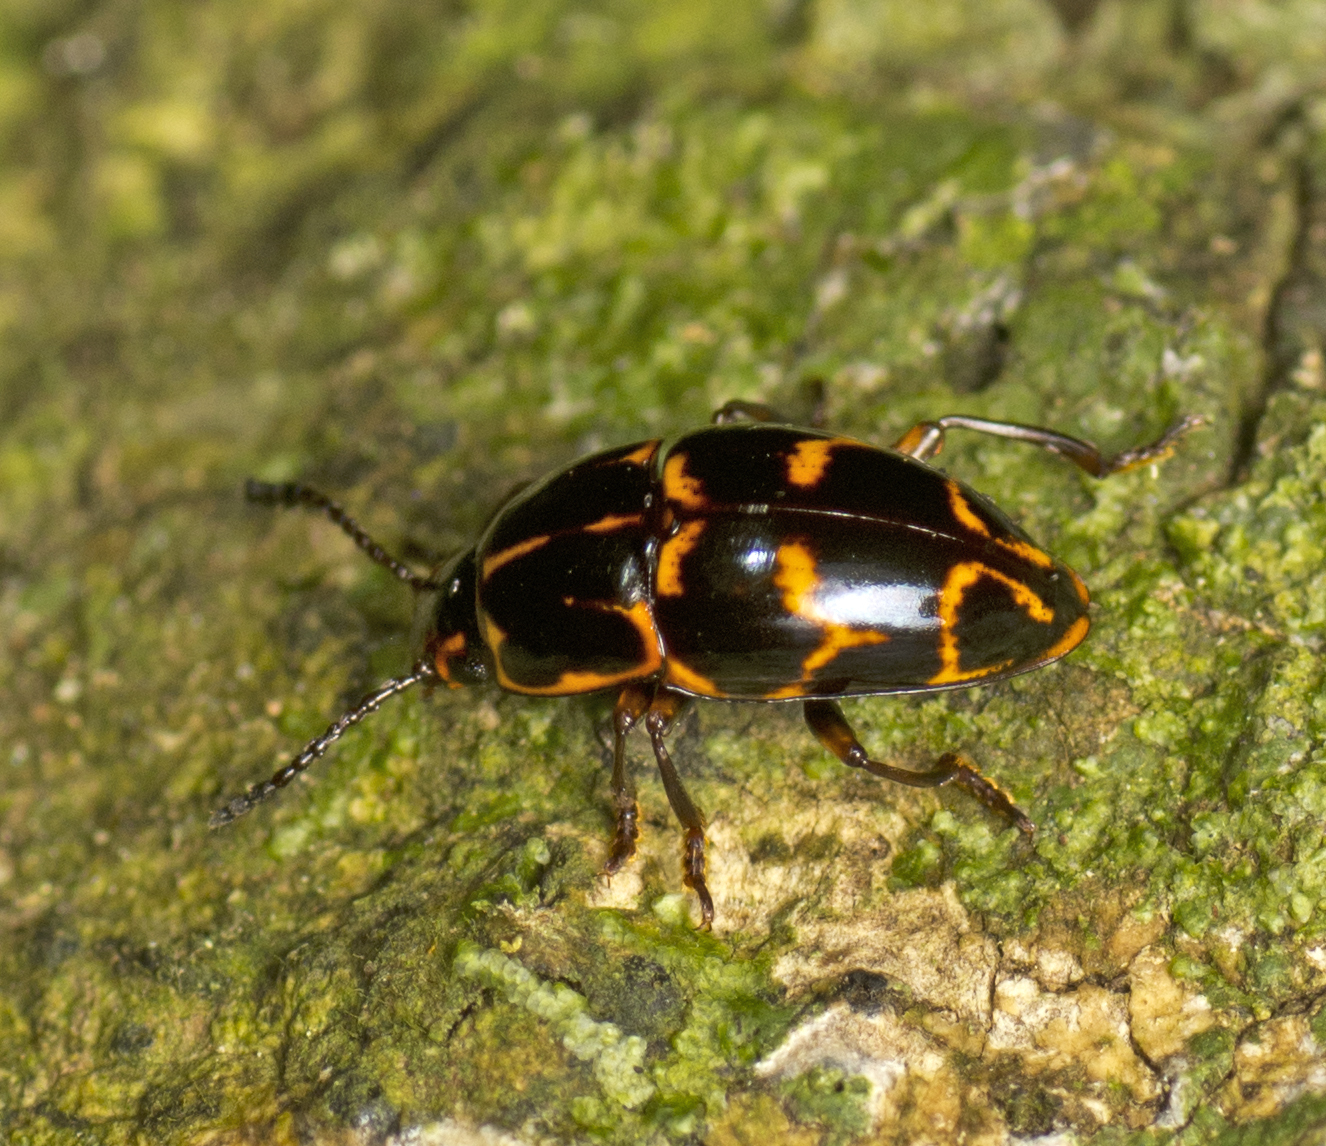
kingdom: Animalia
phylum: Arthropoda
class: Insecta
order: Coleoptera
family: Erotylidae
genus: Episcaphula
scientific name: Episcaphula tamburinea
